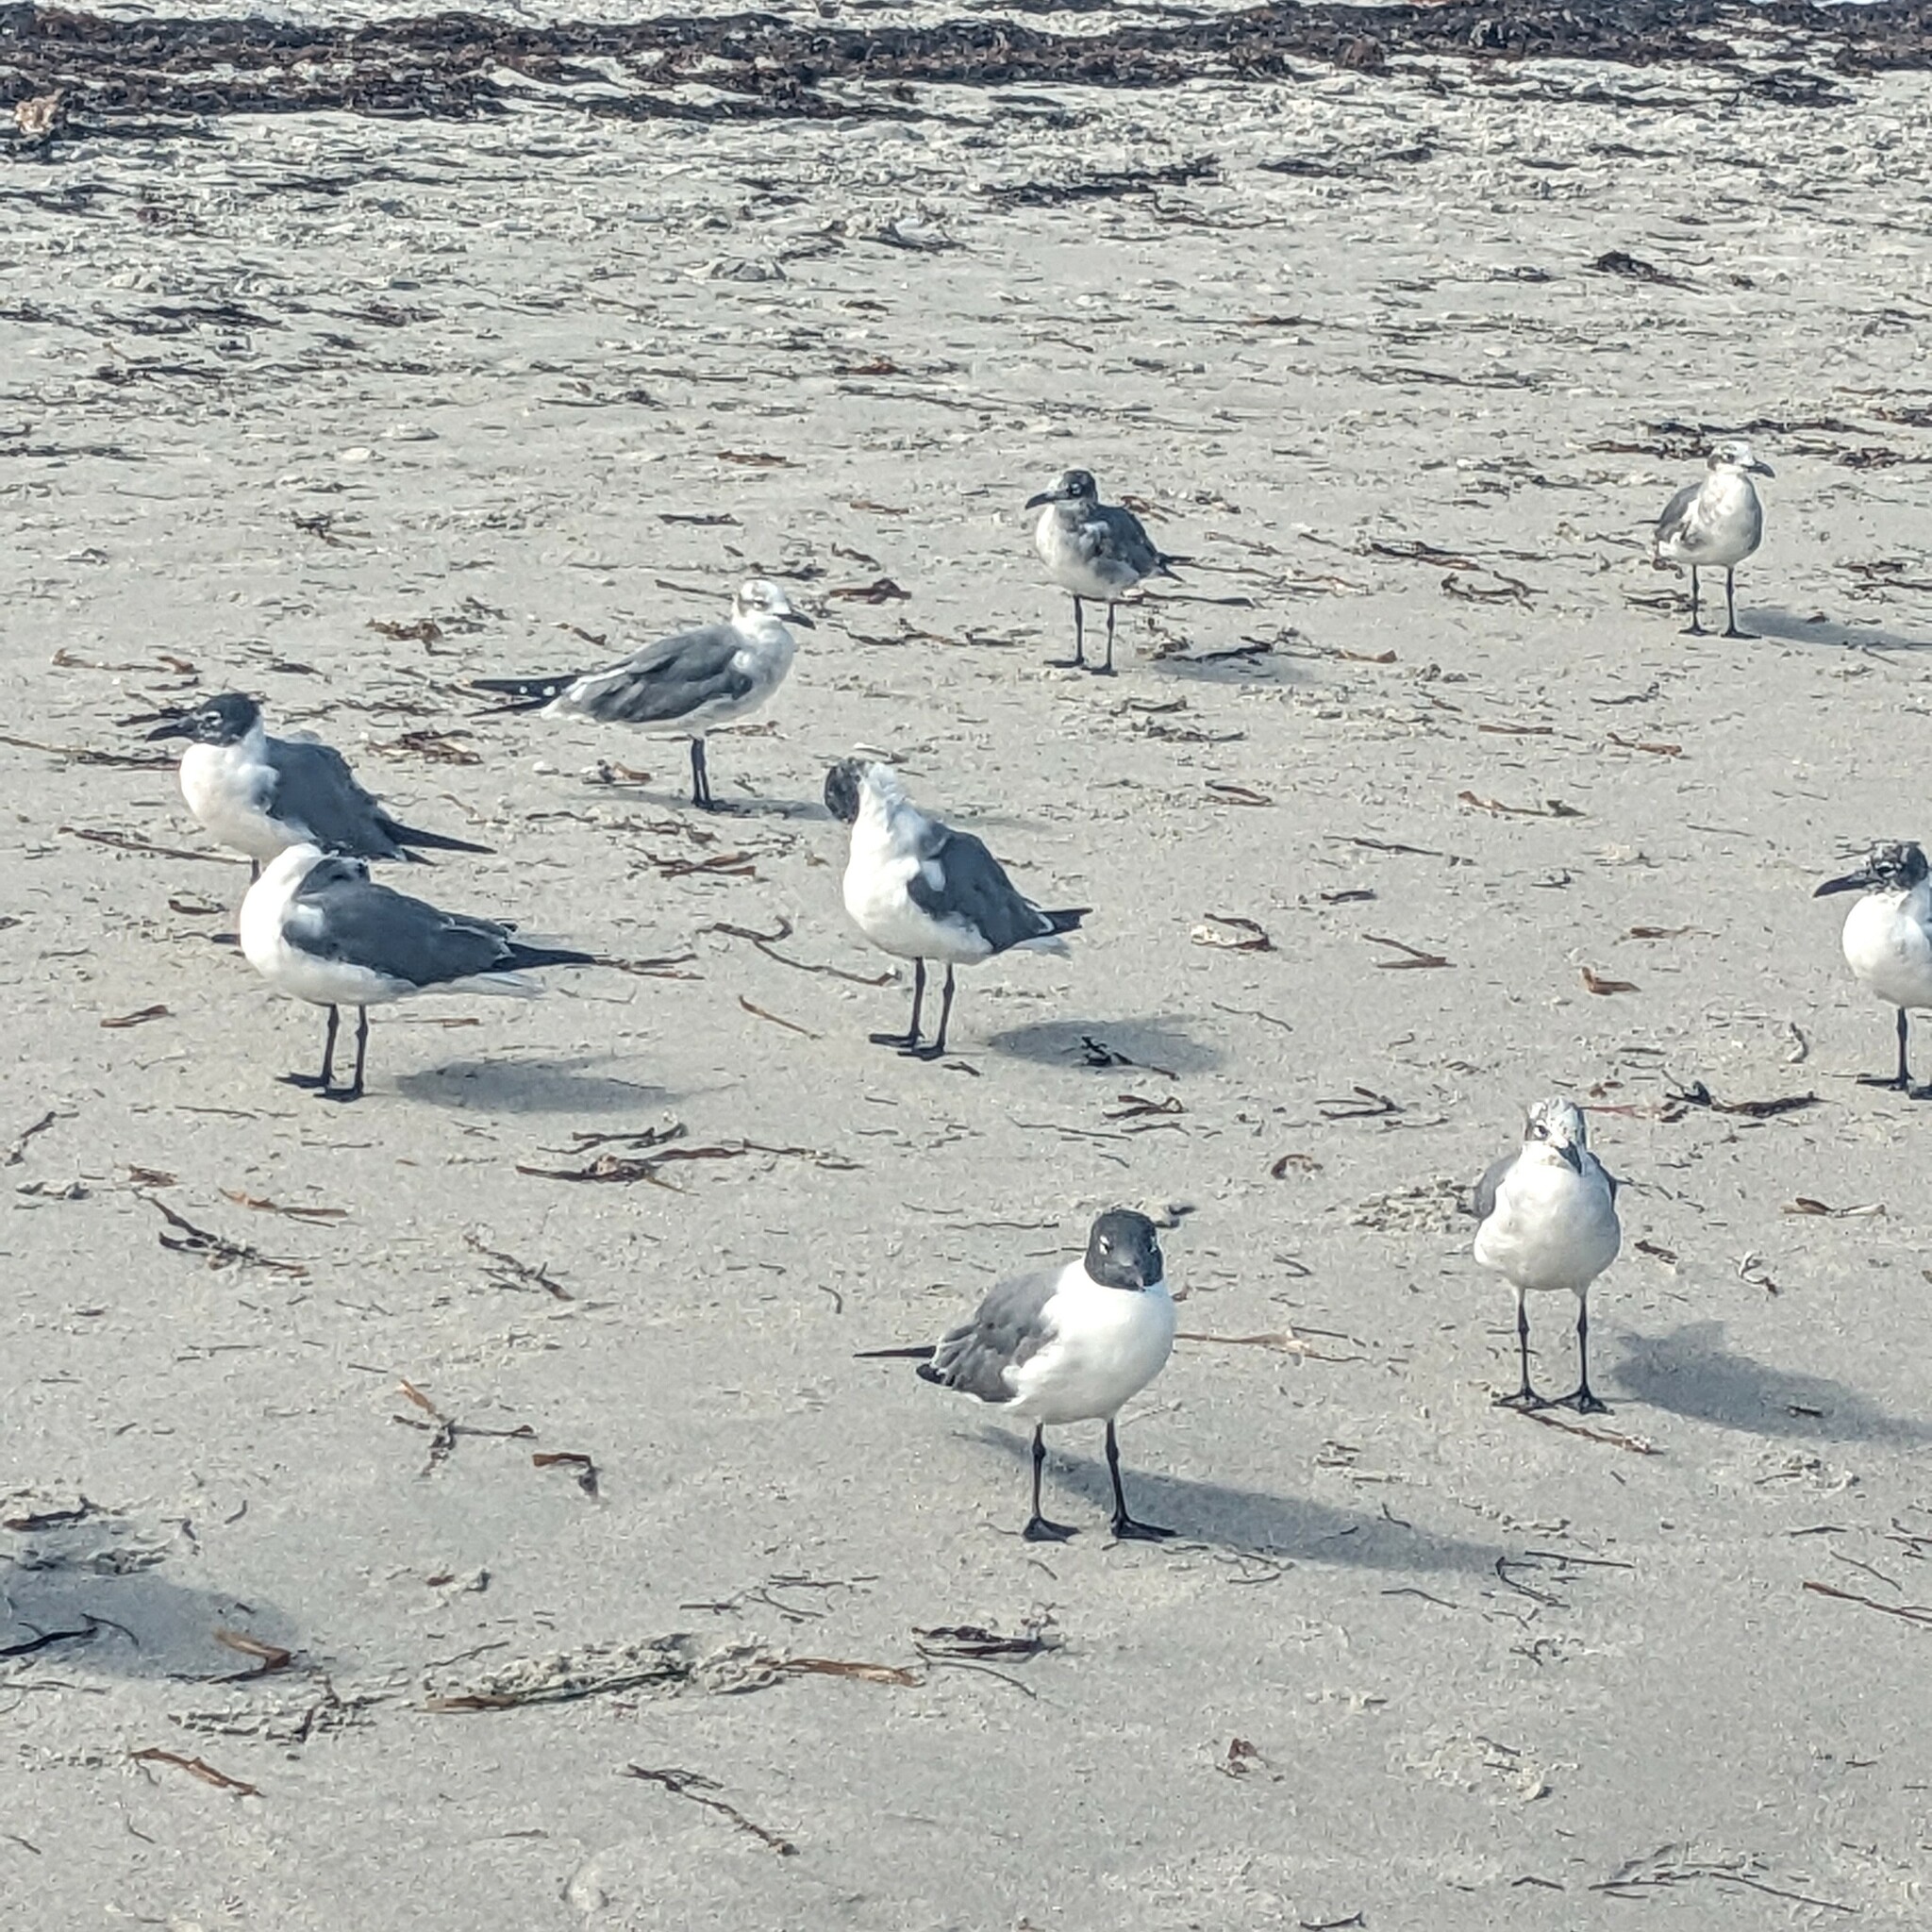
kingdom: Animalia
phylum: Chordata
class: Aves
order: Charadriiformes
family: Laridae
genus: Leucophaeus
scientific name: Leucophaeus atricilla
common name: Laughing gull
